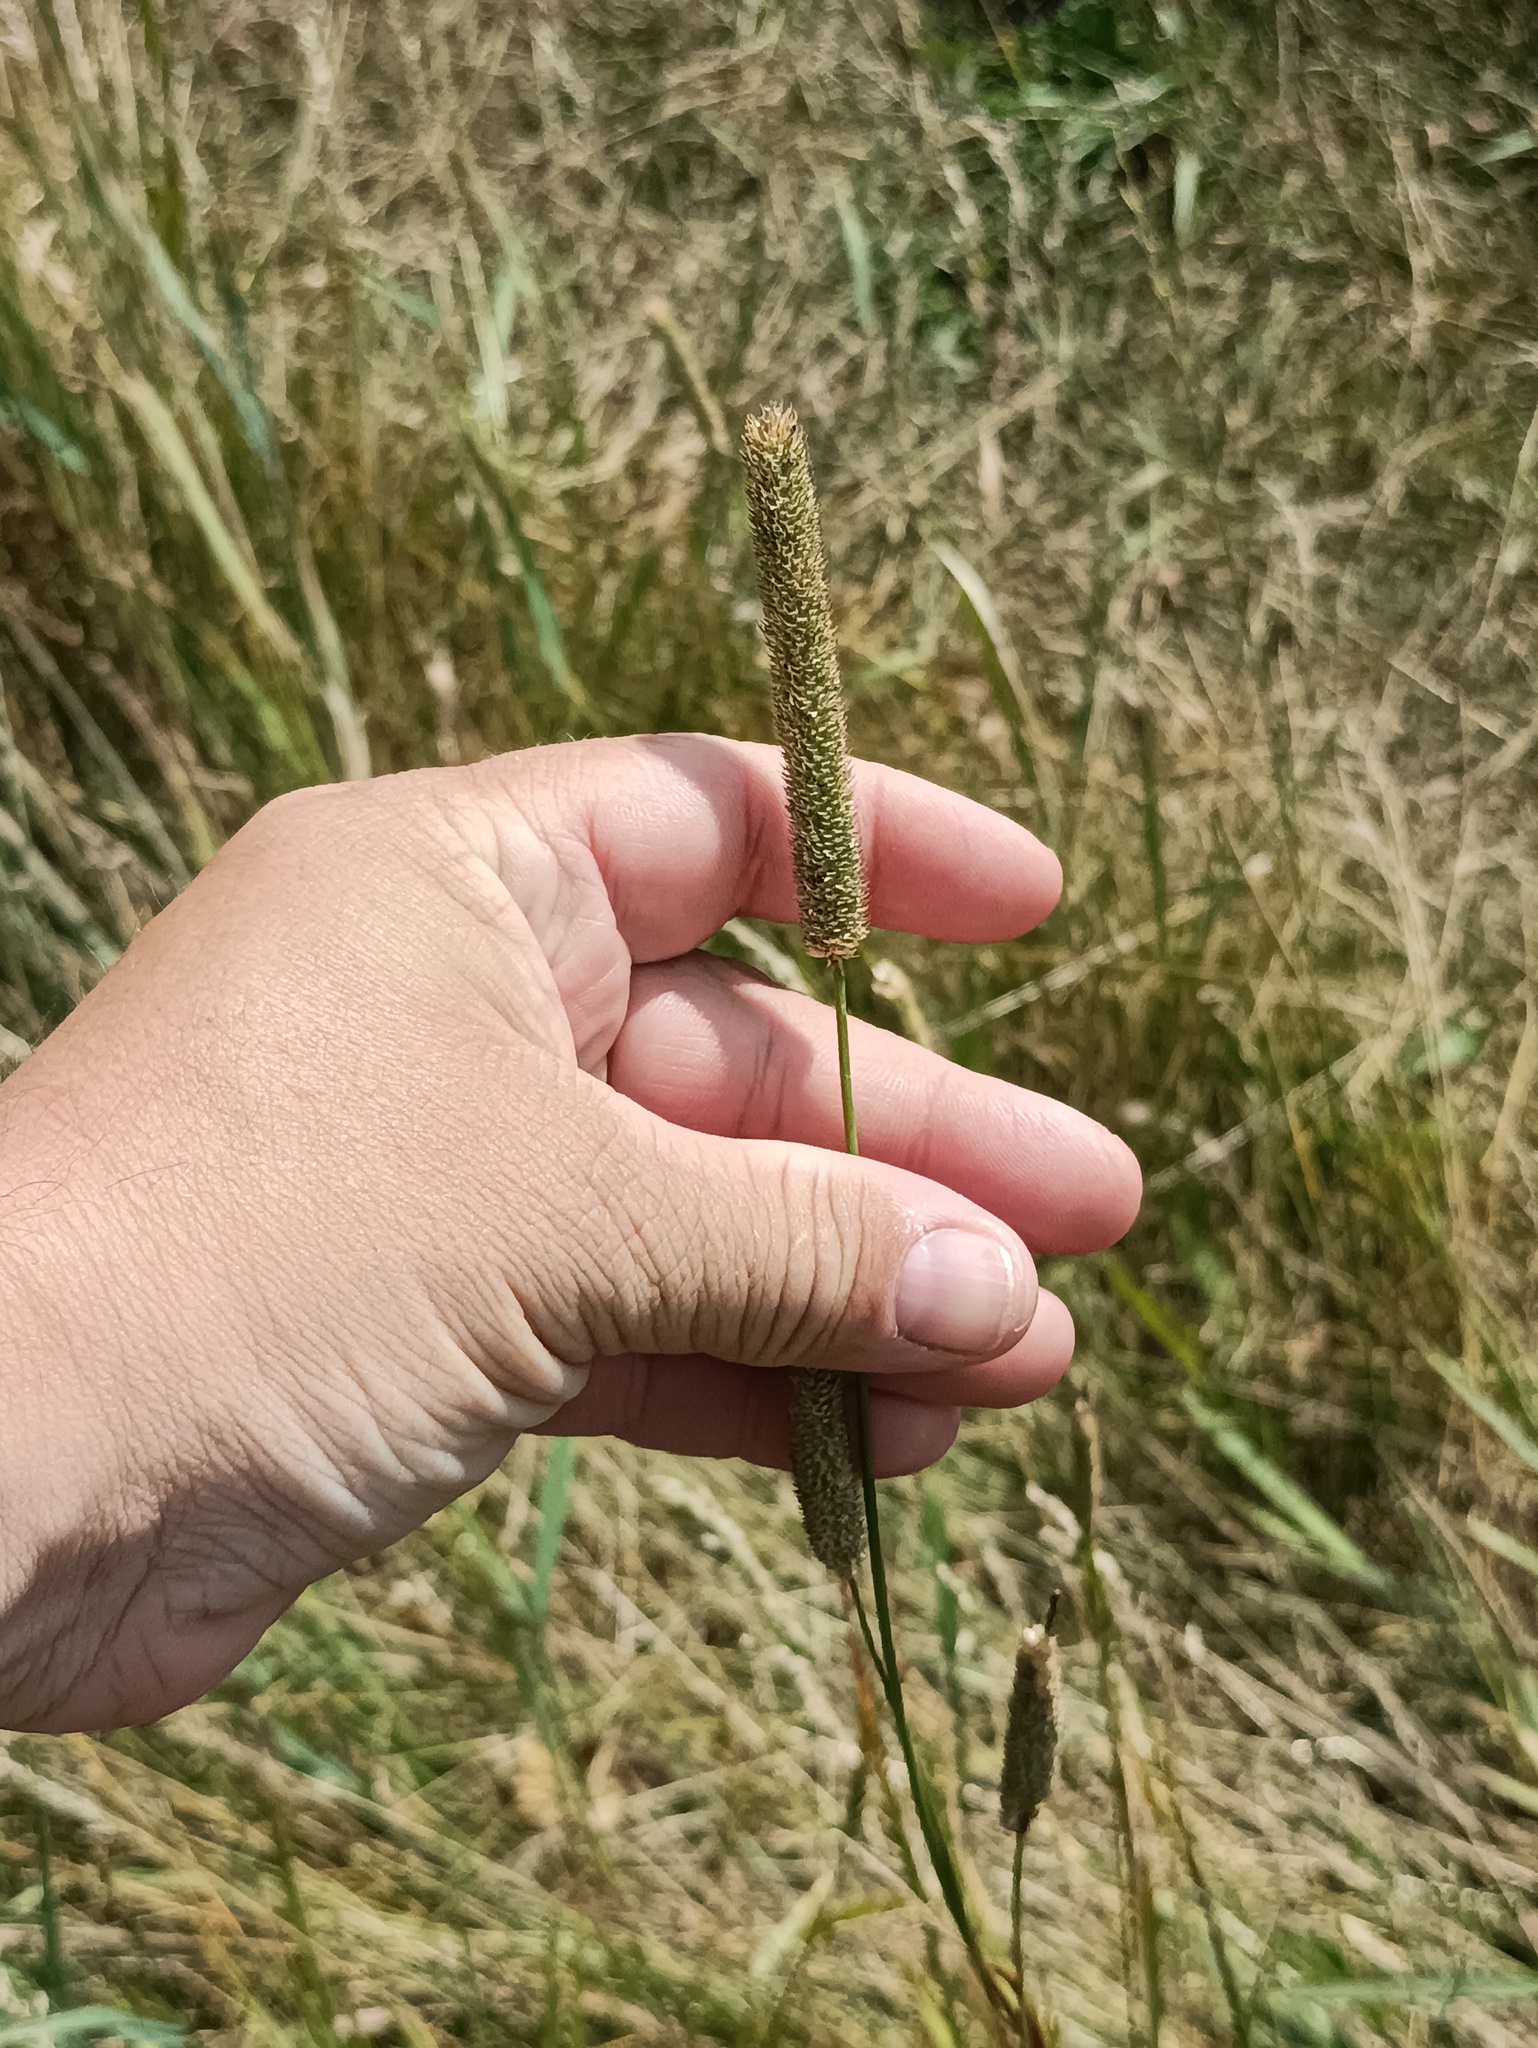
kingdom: Plantae
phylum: Tracheophyta
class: Liliopsida
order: Poales
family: Poaceae
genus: Phleum
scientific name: Phleum pratense
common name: Timothy grass
